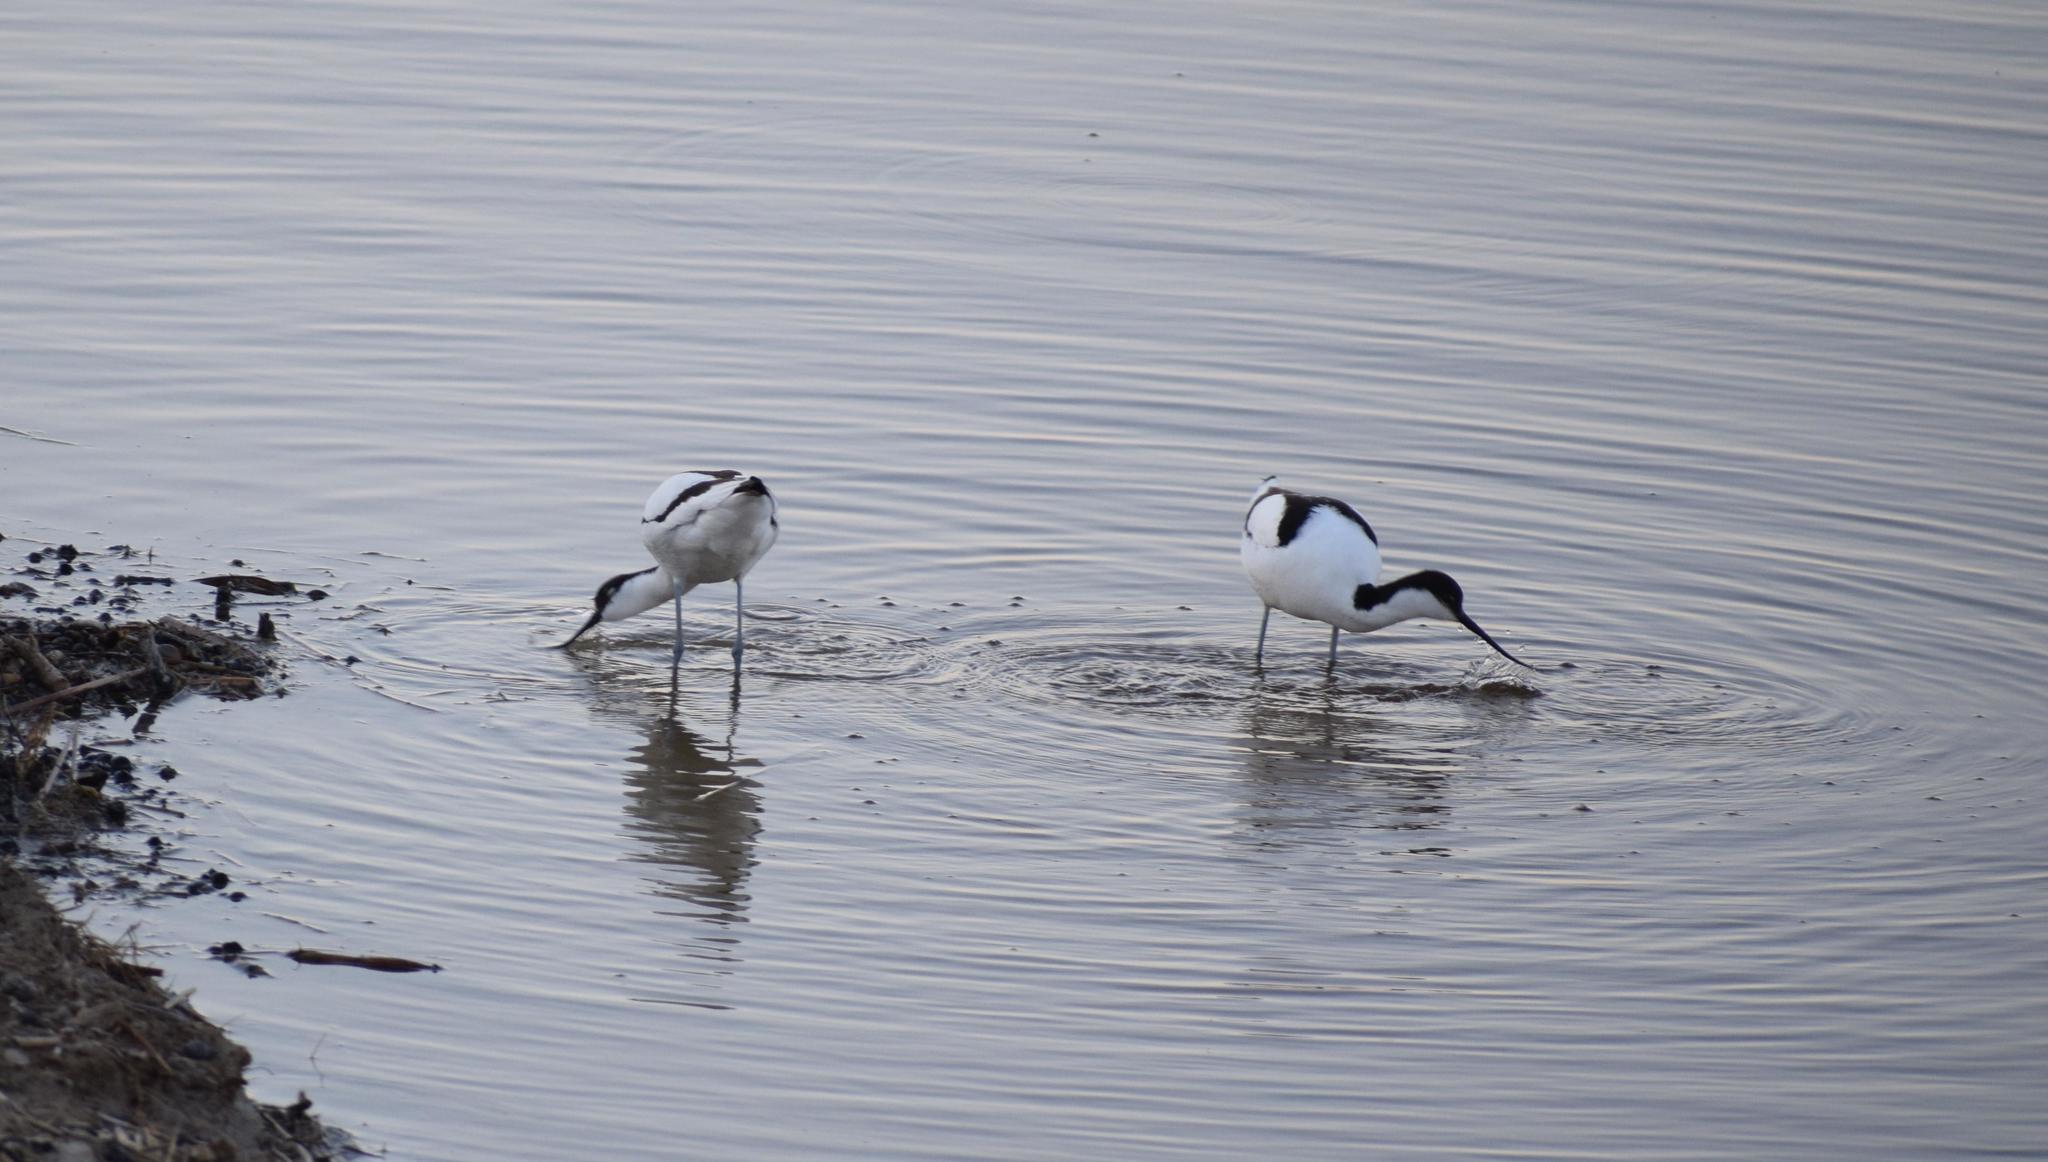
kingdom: Animalia
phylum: Chordata
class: Aves
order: Charadriiformes
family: Recurvirostridae
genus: Recurvirostra
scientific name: Recurvirostra avosetta
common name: Pied avocet
